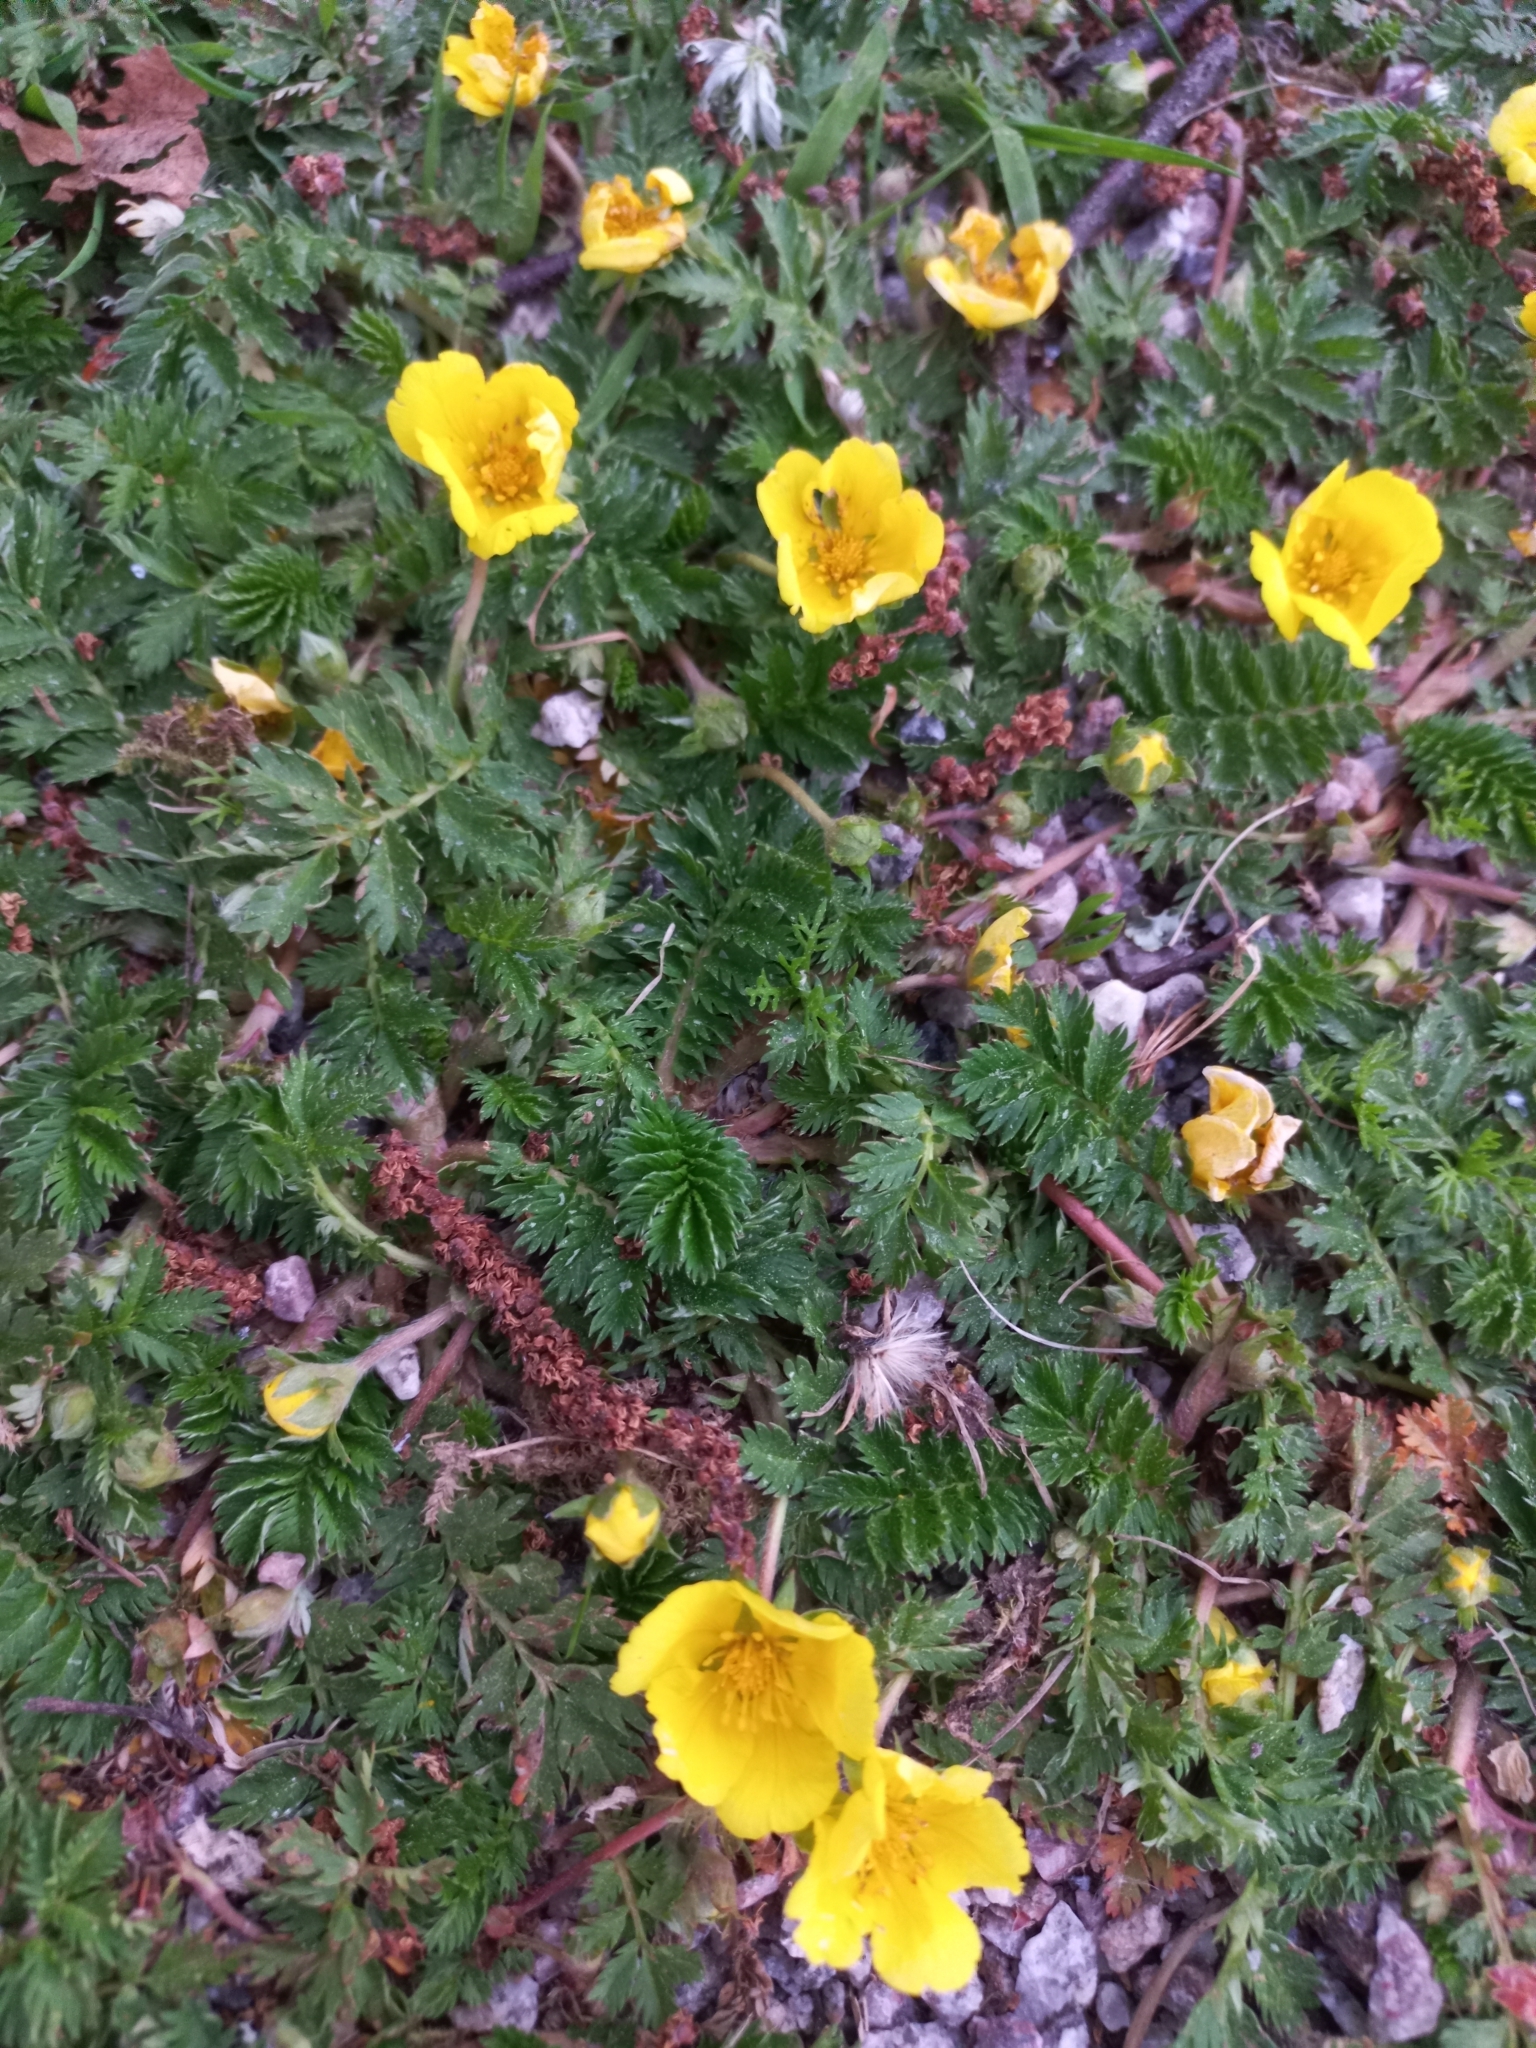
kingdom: Plantae
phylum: Tracheophyta
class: Magnoliopsida
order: Rosales
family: Rosaceae
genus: Argentina
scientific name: Argentina anserina
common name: Common silverweed
